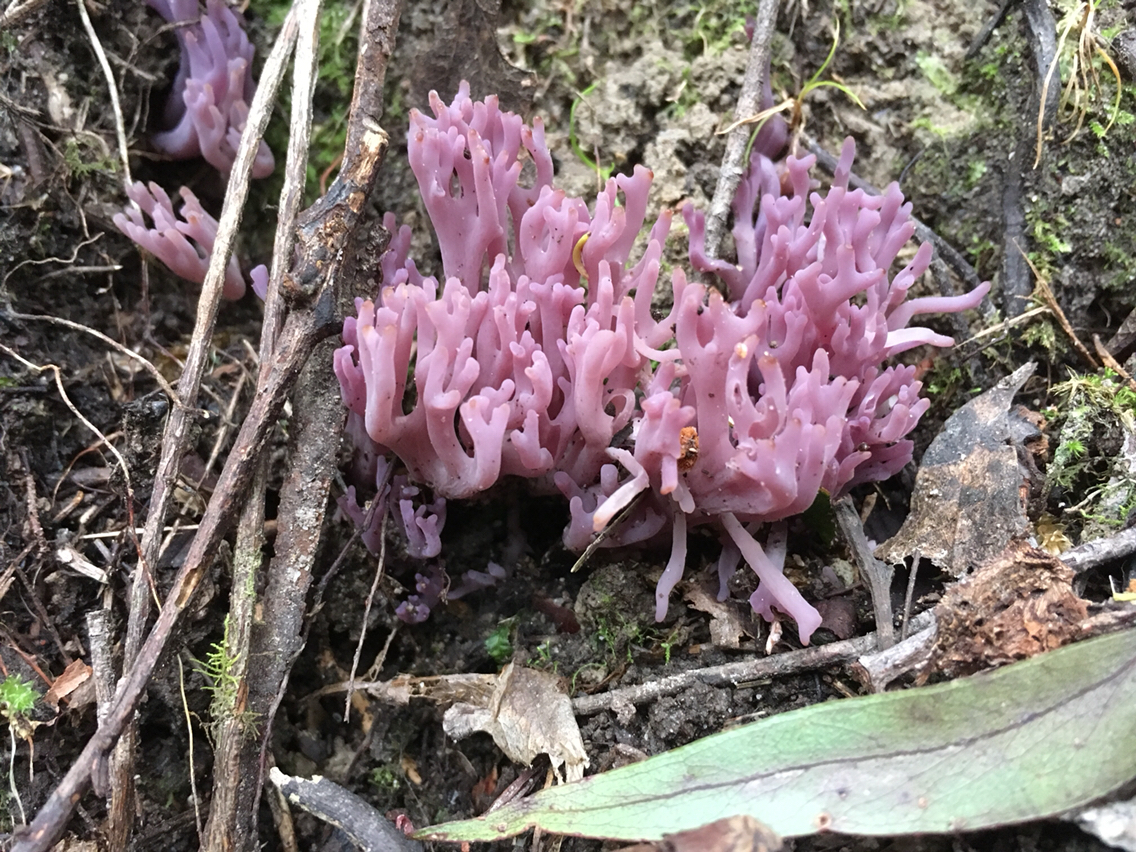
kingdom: Fungi
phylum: Basidiomycota
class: Agaricomycetes
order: Agaricales
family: Clavariaceae
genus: Clavaria
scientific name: Clavaria zollingeri
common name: Violet coral
